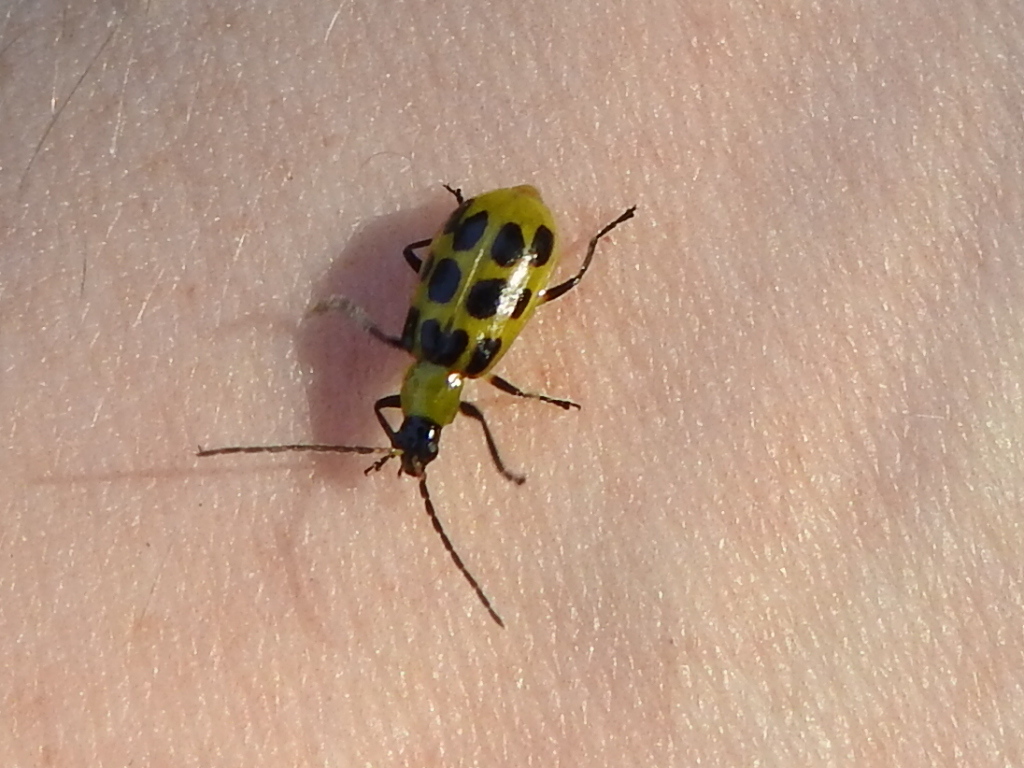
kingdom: Animalia
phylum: Arthropoda
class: Insecta
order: Coleoptera
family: Chrysomelidae
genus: Diabrotica
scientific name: Diabrotica undecimpunctata
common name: Spotted cucumber beetle
